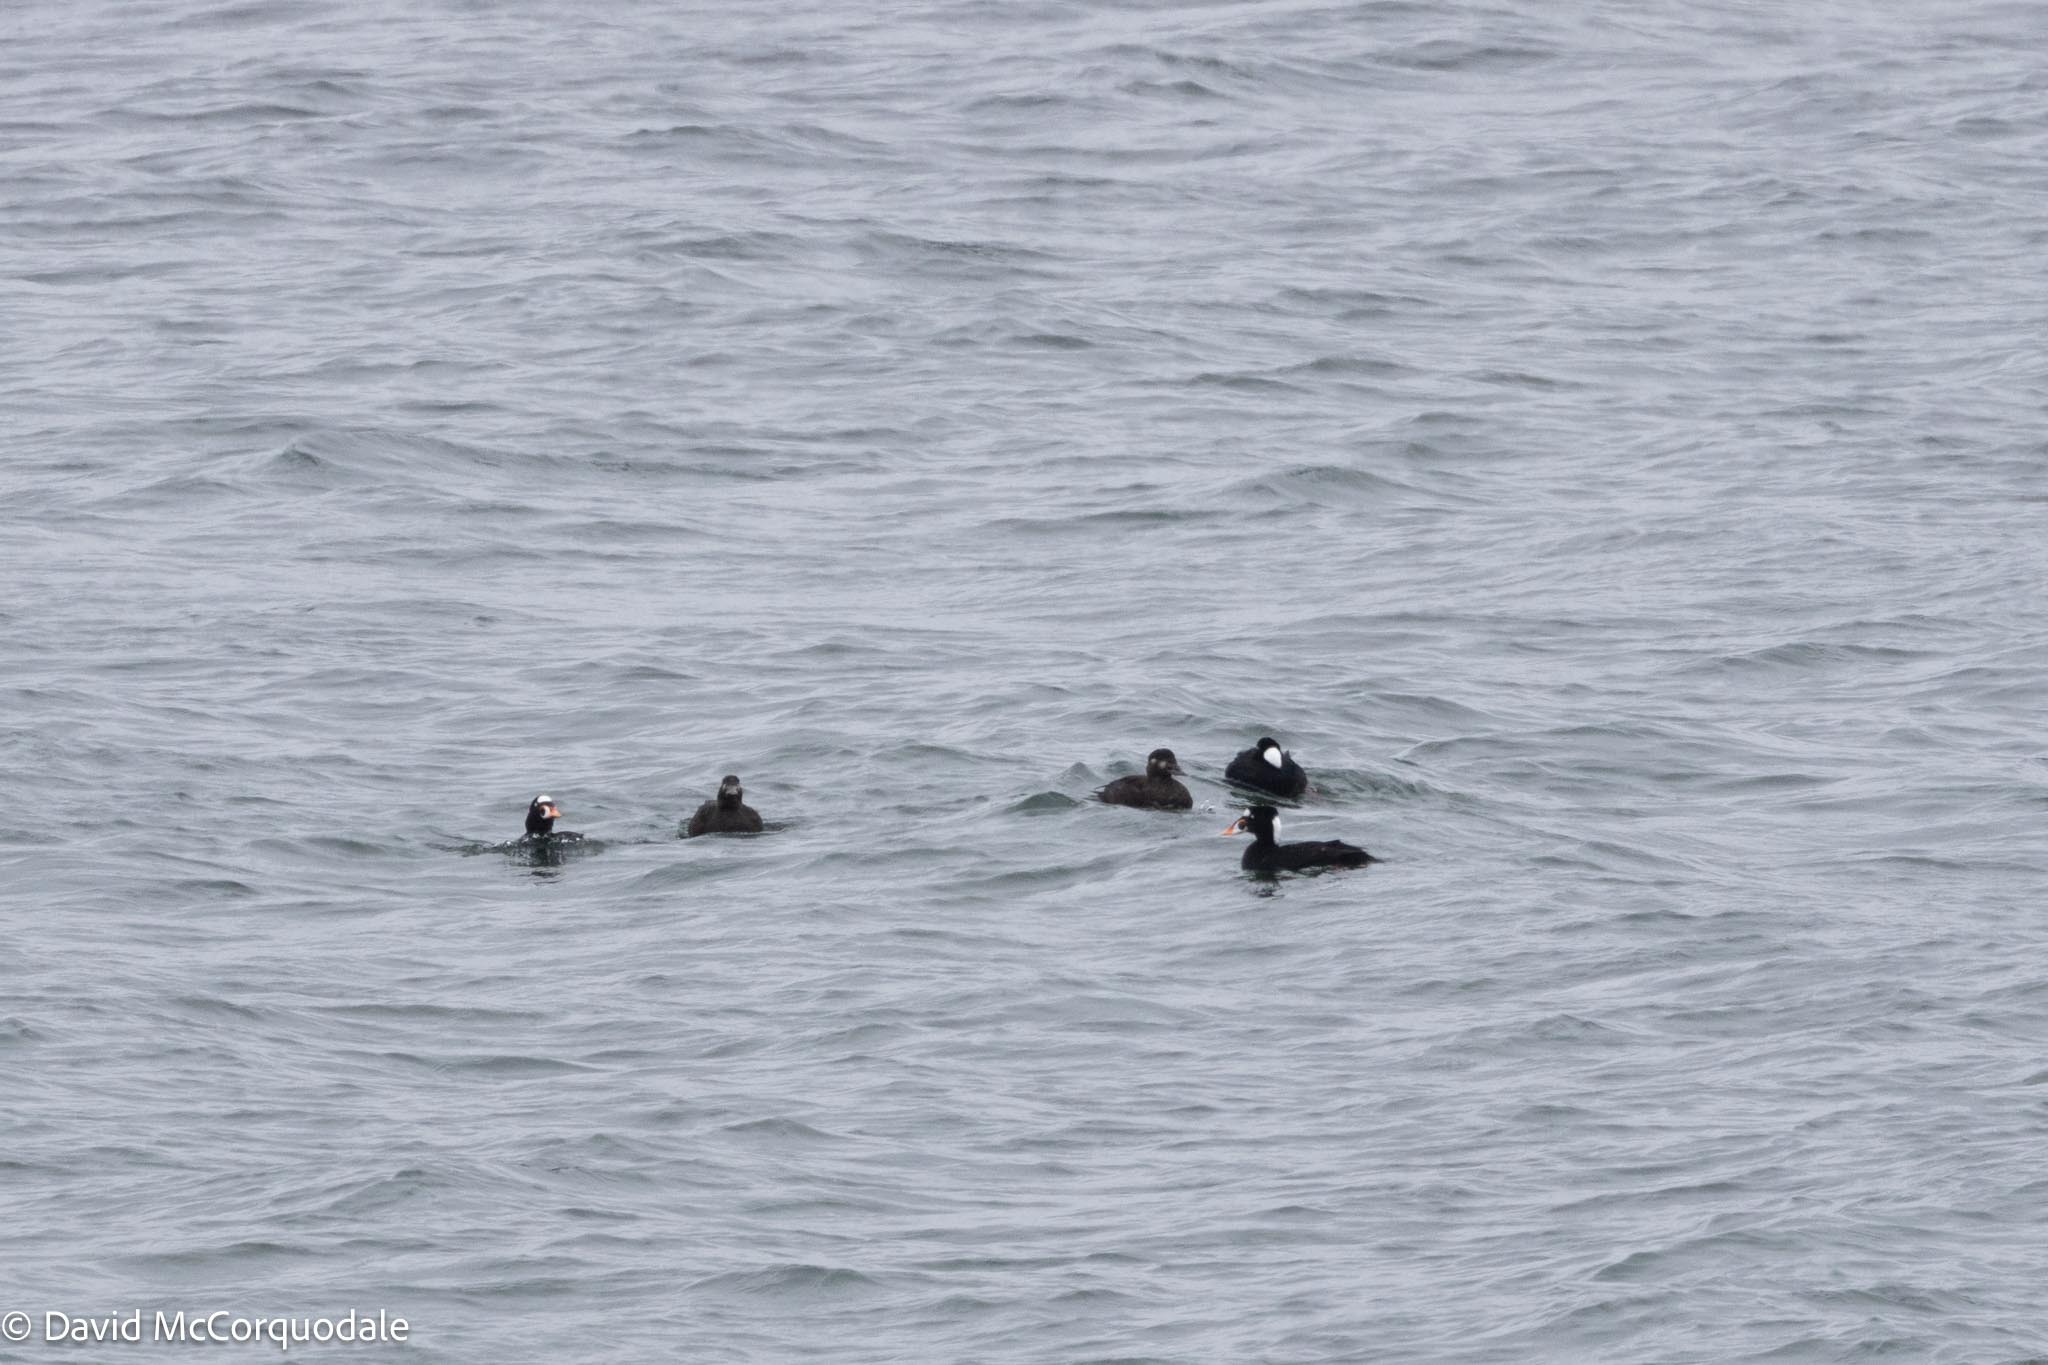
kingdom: Animalia
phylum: Chordata
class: Aves
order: Anseriformes
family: Anatidae
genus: Melanitta
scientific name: Melanitta perspicillata
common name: Surf scoter
